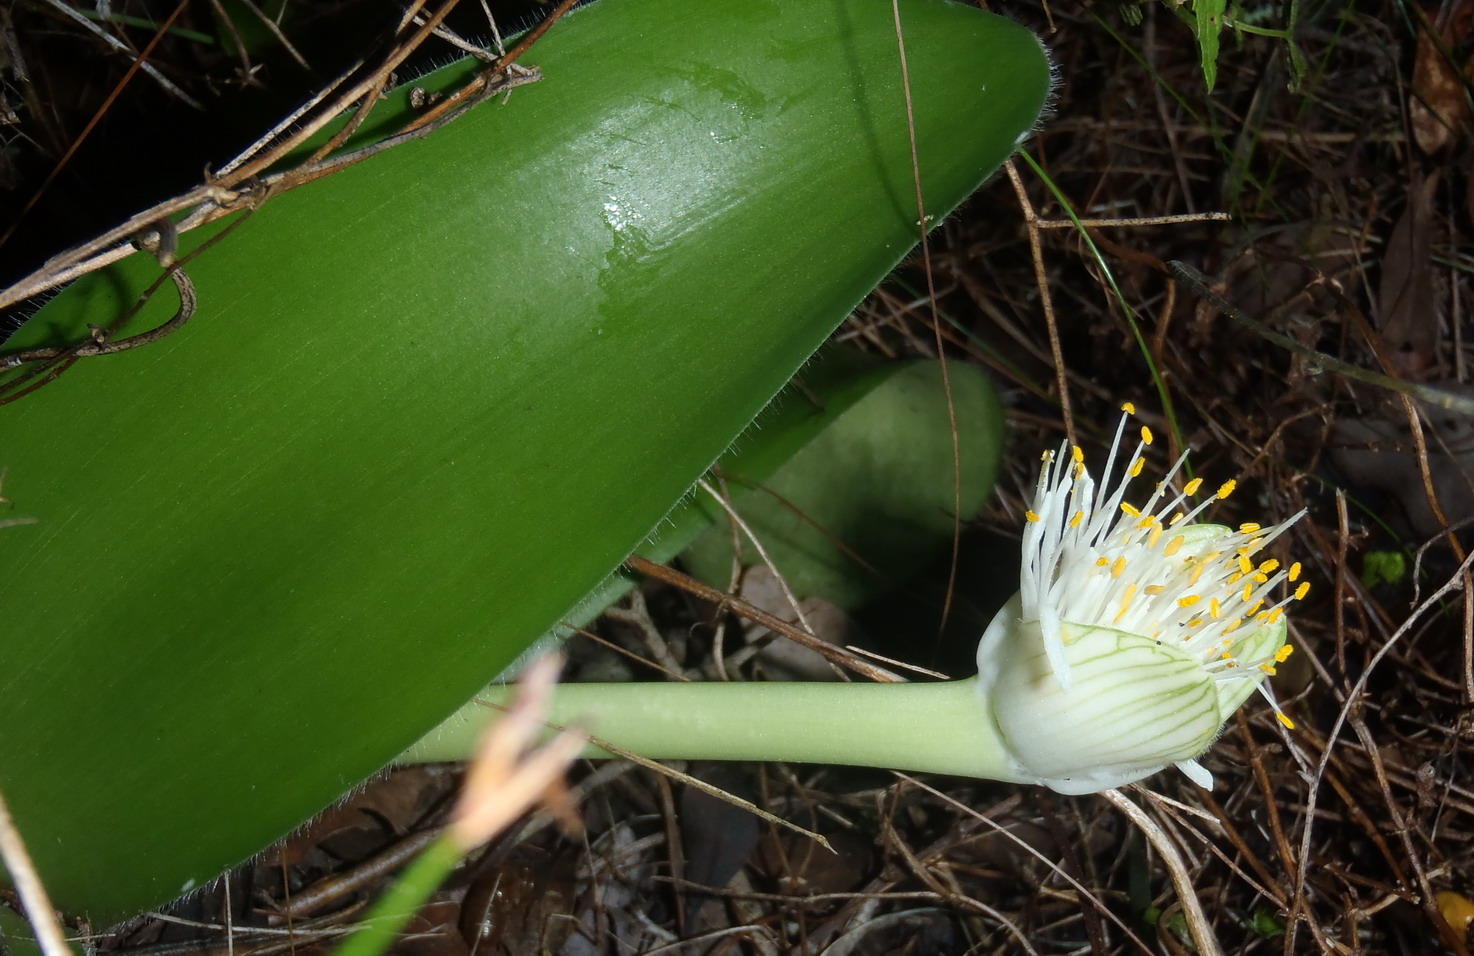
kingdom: Plantae
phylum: Tracheophyta
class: Liliopsida
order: Asparagales
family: Amaryllidaceae
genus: Haemanthus
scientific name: Haemanthus albiflos
